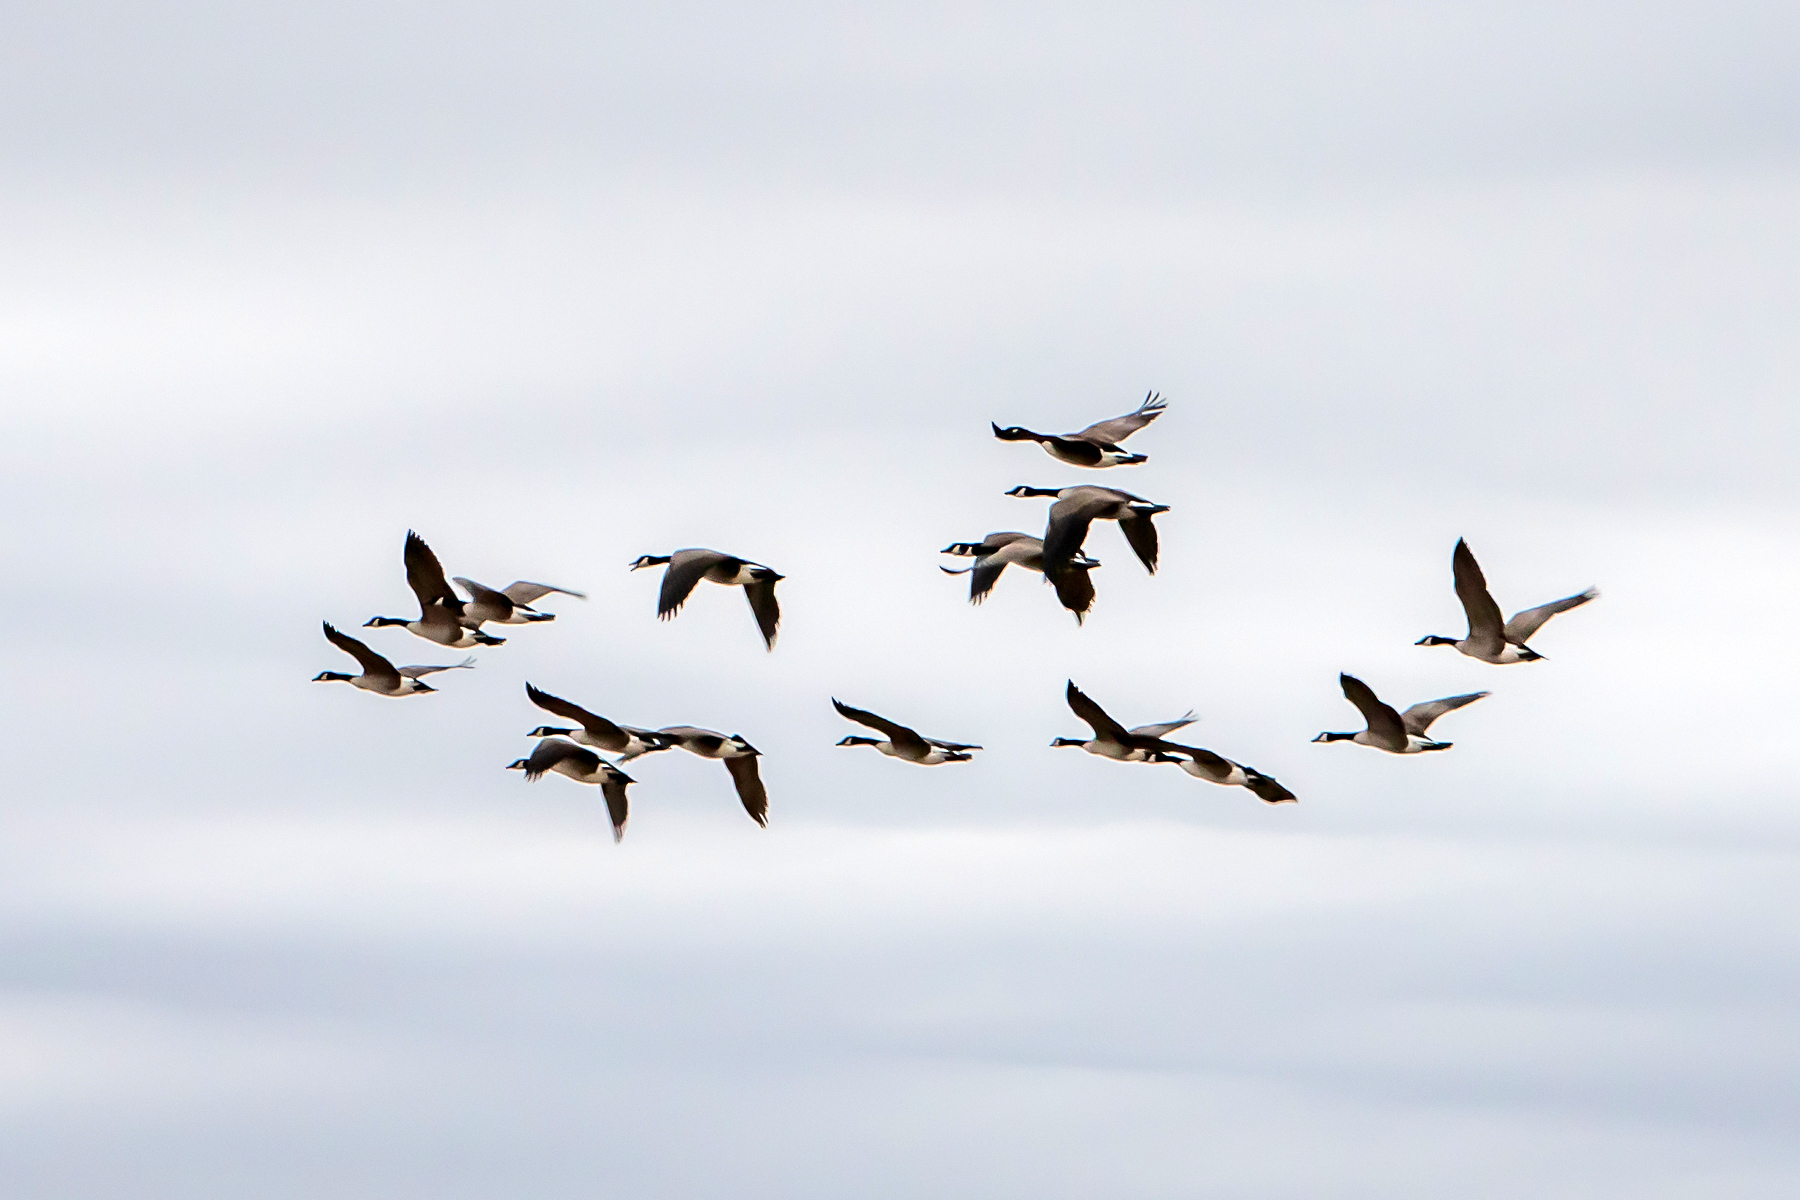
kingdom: Animalia
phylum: Chordata
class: Aves
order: Anseriformes
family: Anatidae
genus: Branta
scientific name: Branta canadensis
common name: Canada goose
